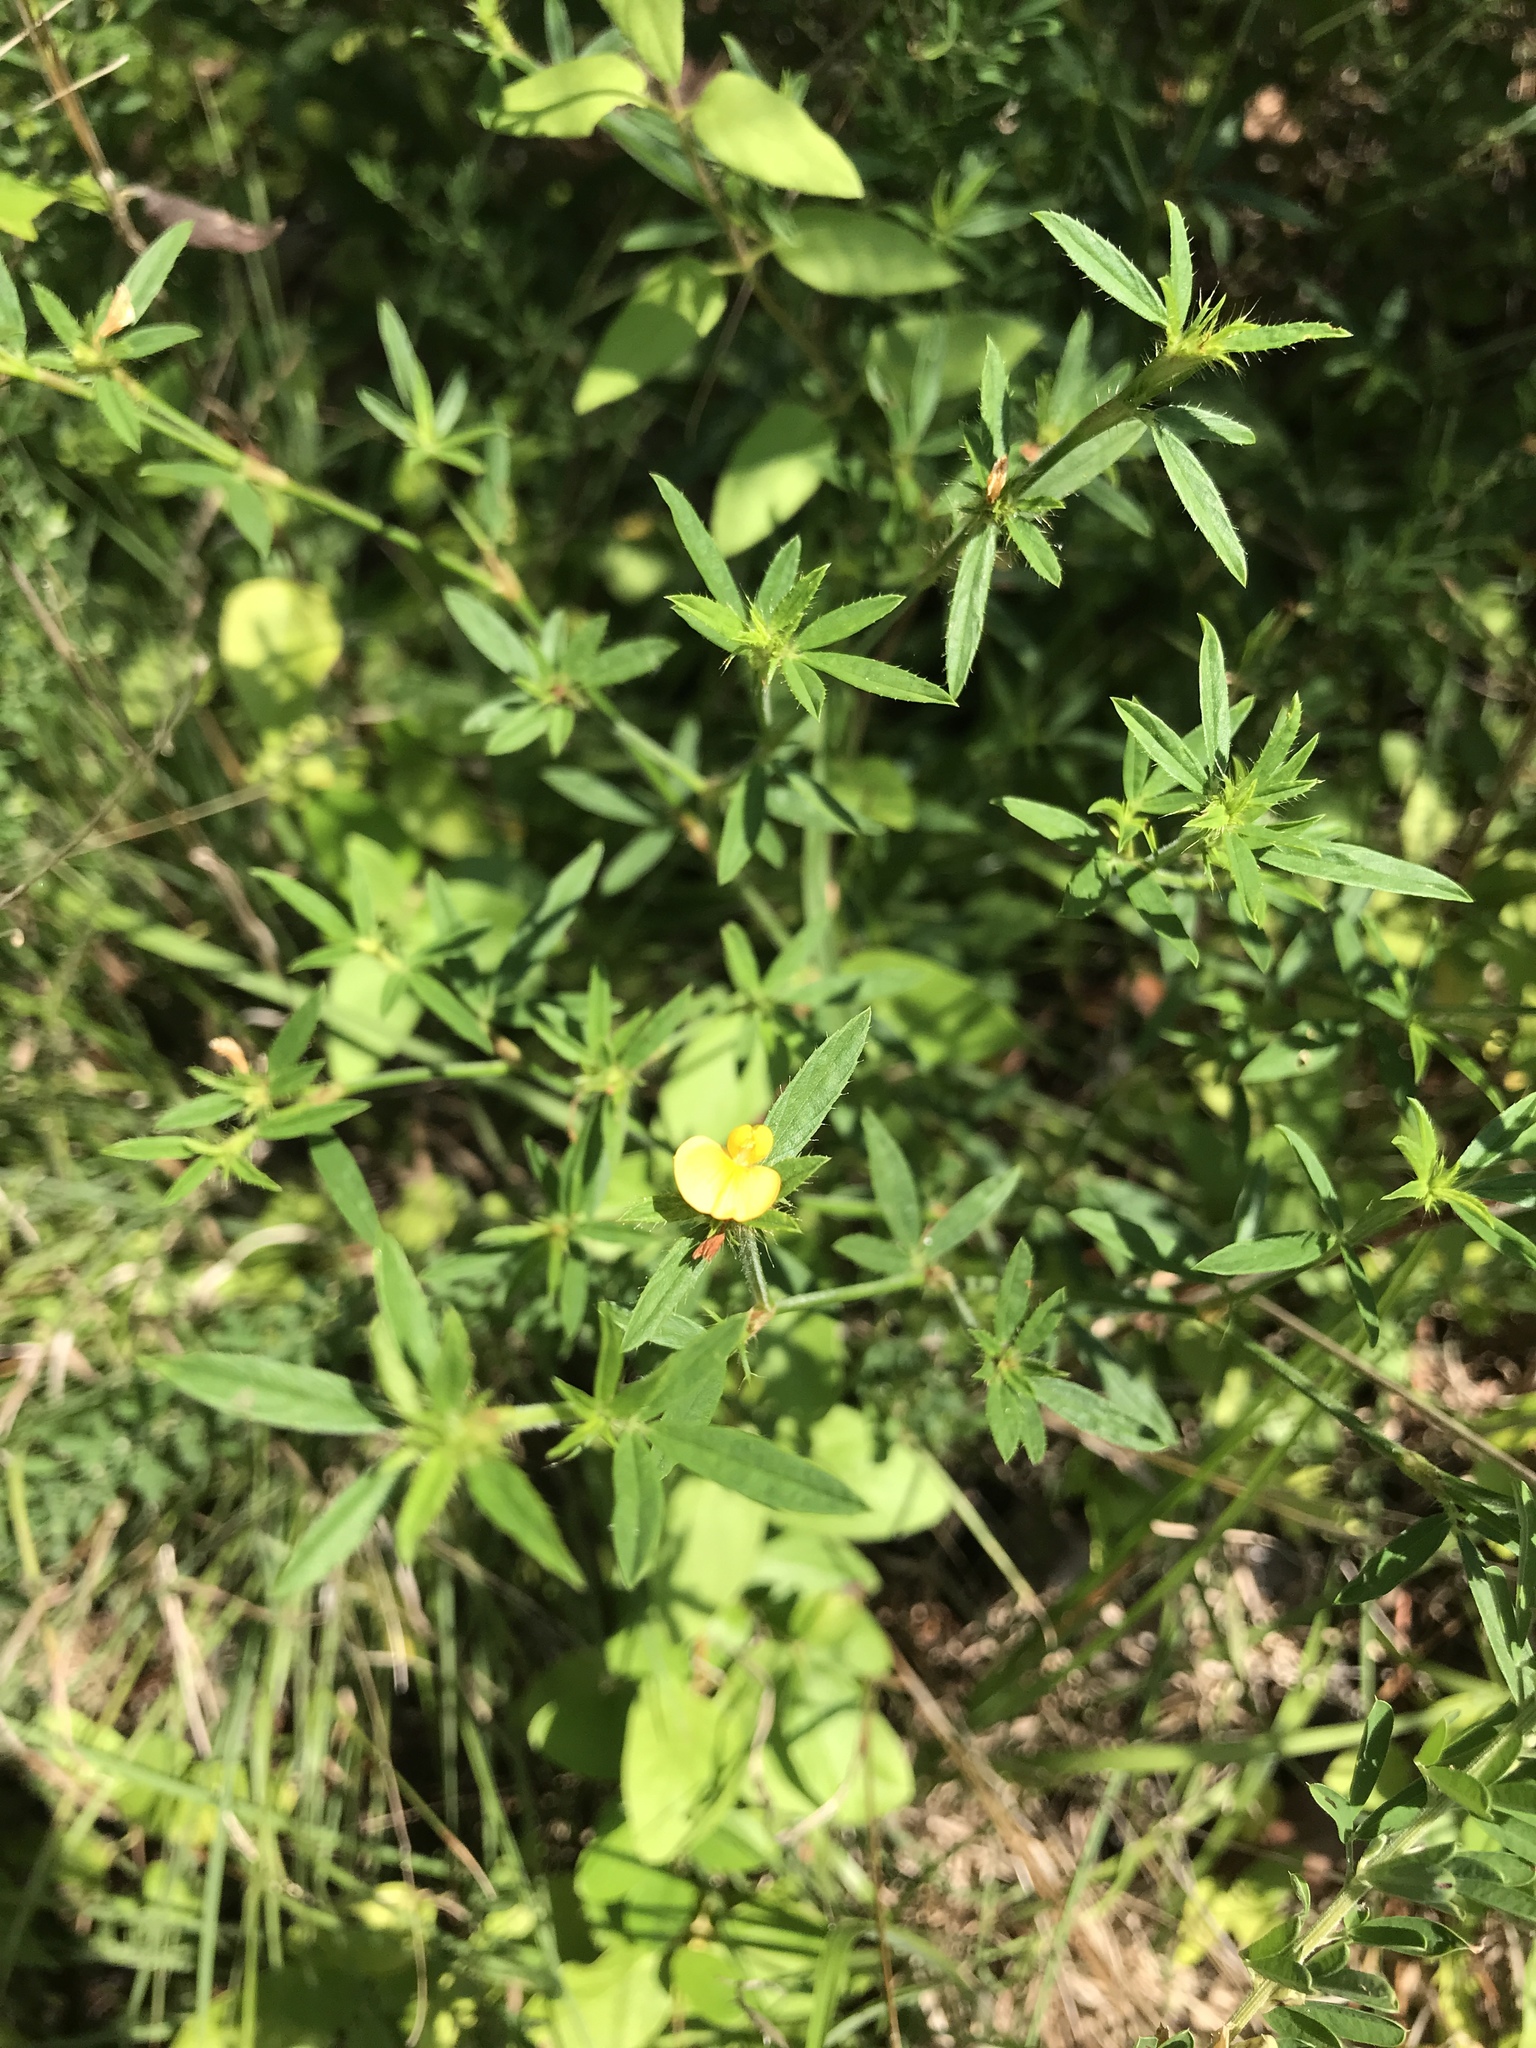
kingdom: Plantae
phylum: Tracheophyta
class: Magnoliopsida
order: Fabales
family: Fabaceae
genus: Stylosanthes
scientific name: Stylosanthes biflora
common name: Two-flower pencil-flower
